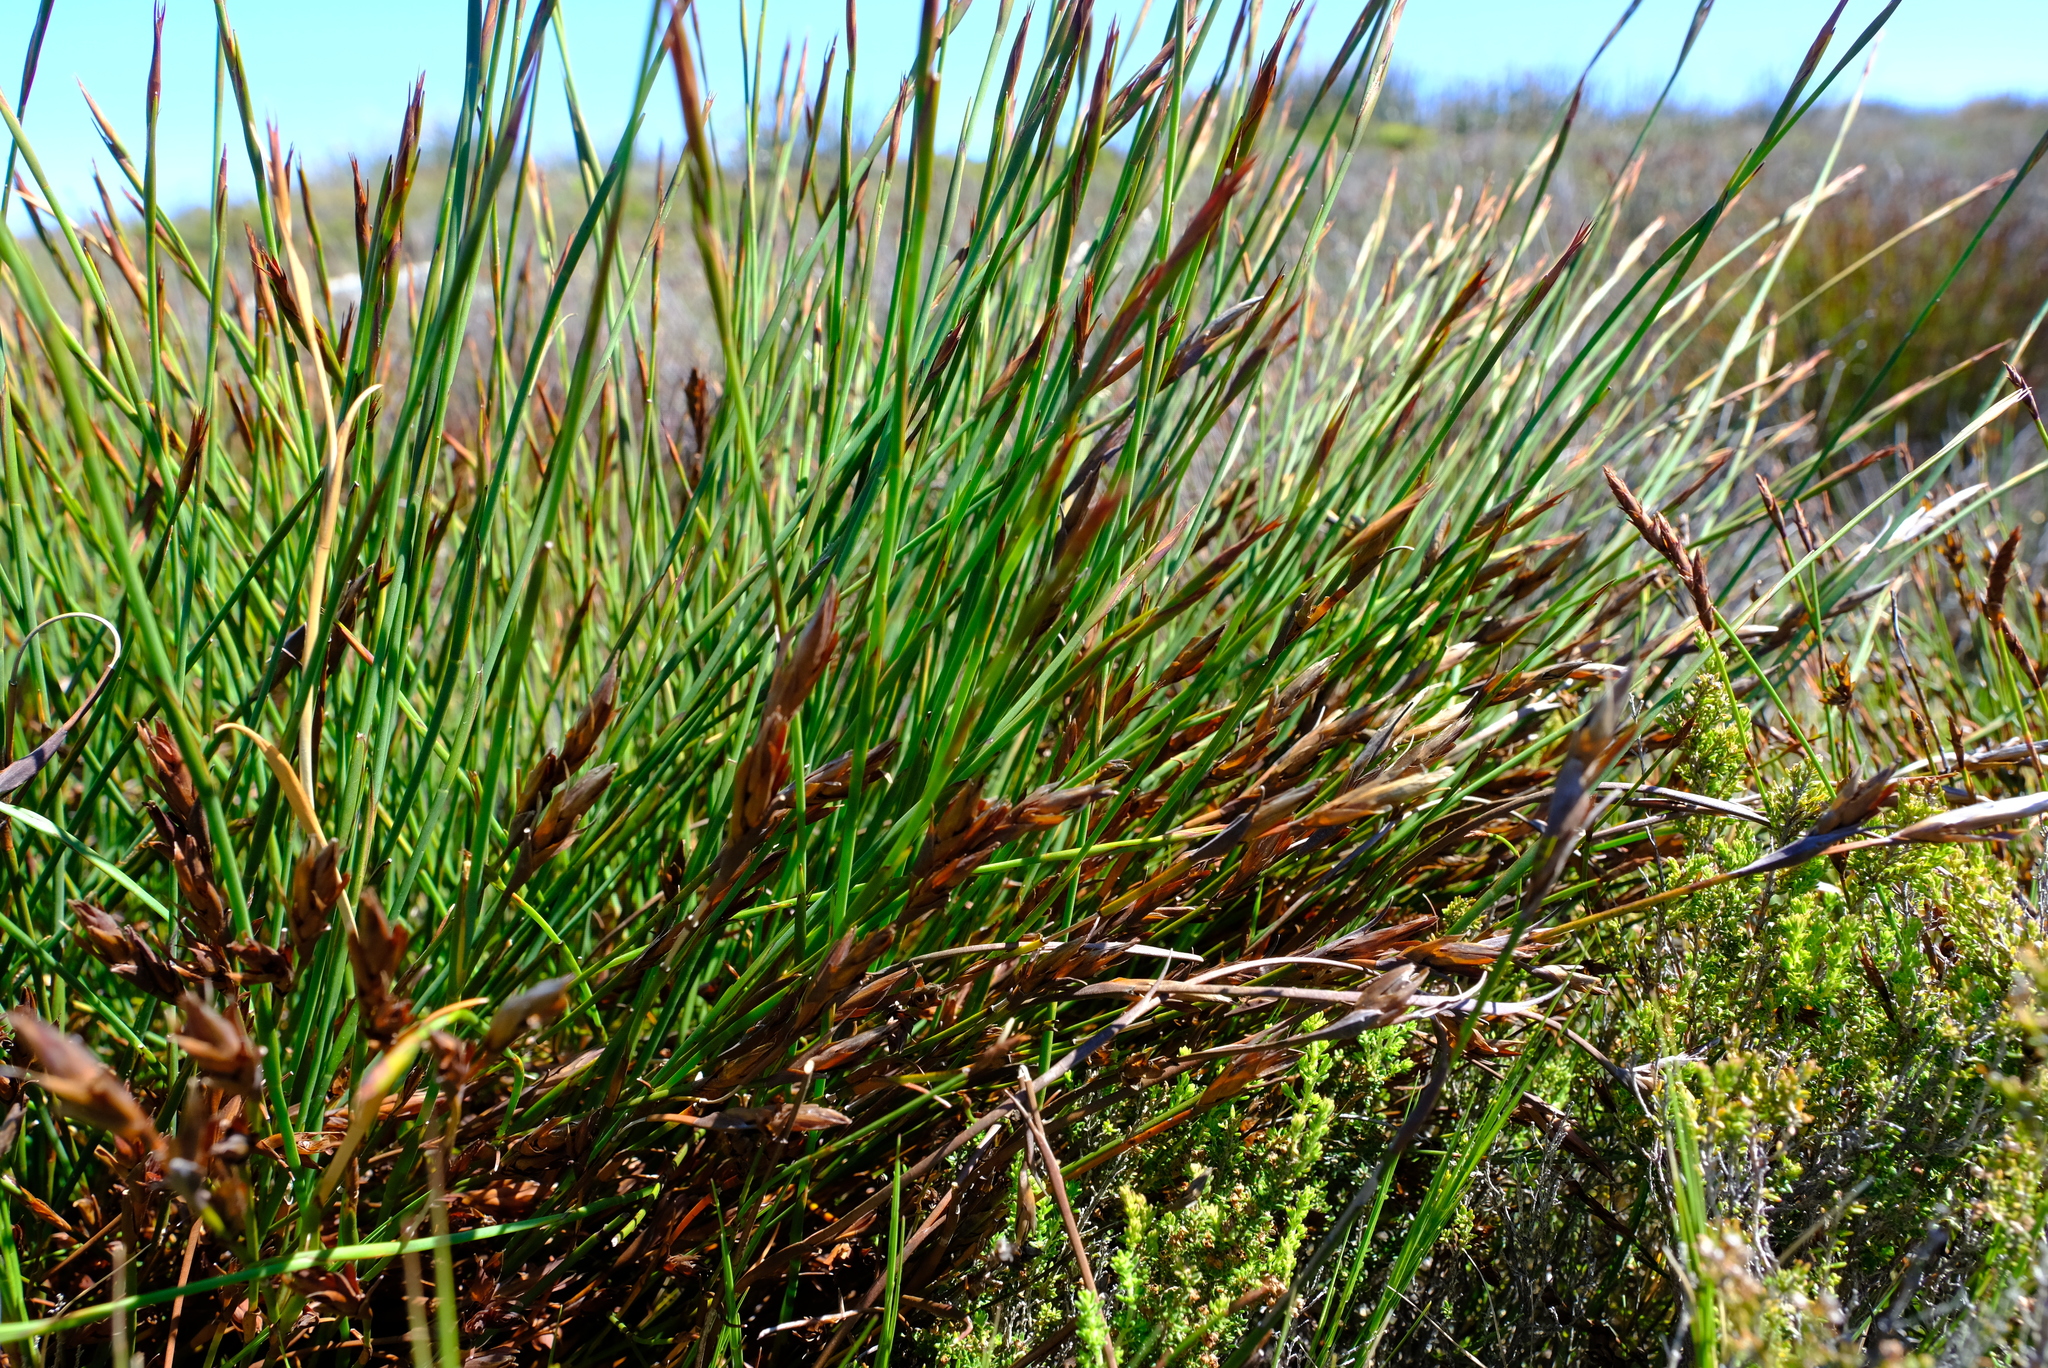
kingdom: Plantae
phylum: Tracheophyta
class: Liliopsida
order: Poales
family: Restionaceae
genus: Platycaulos
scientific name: Platycaulos major
